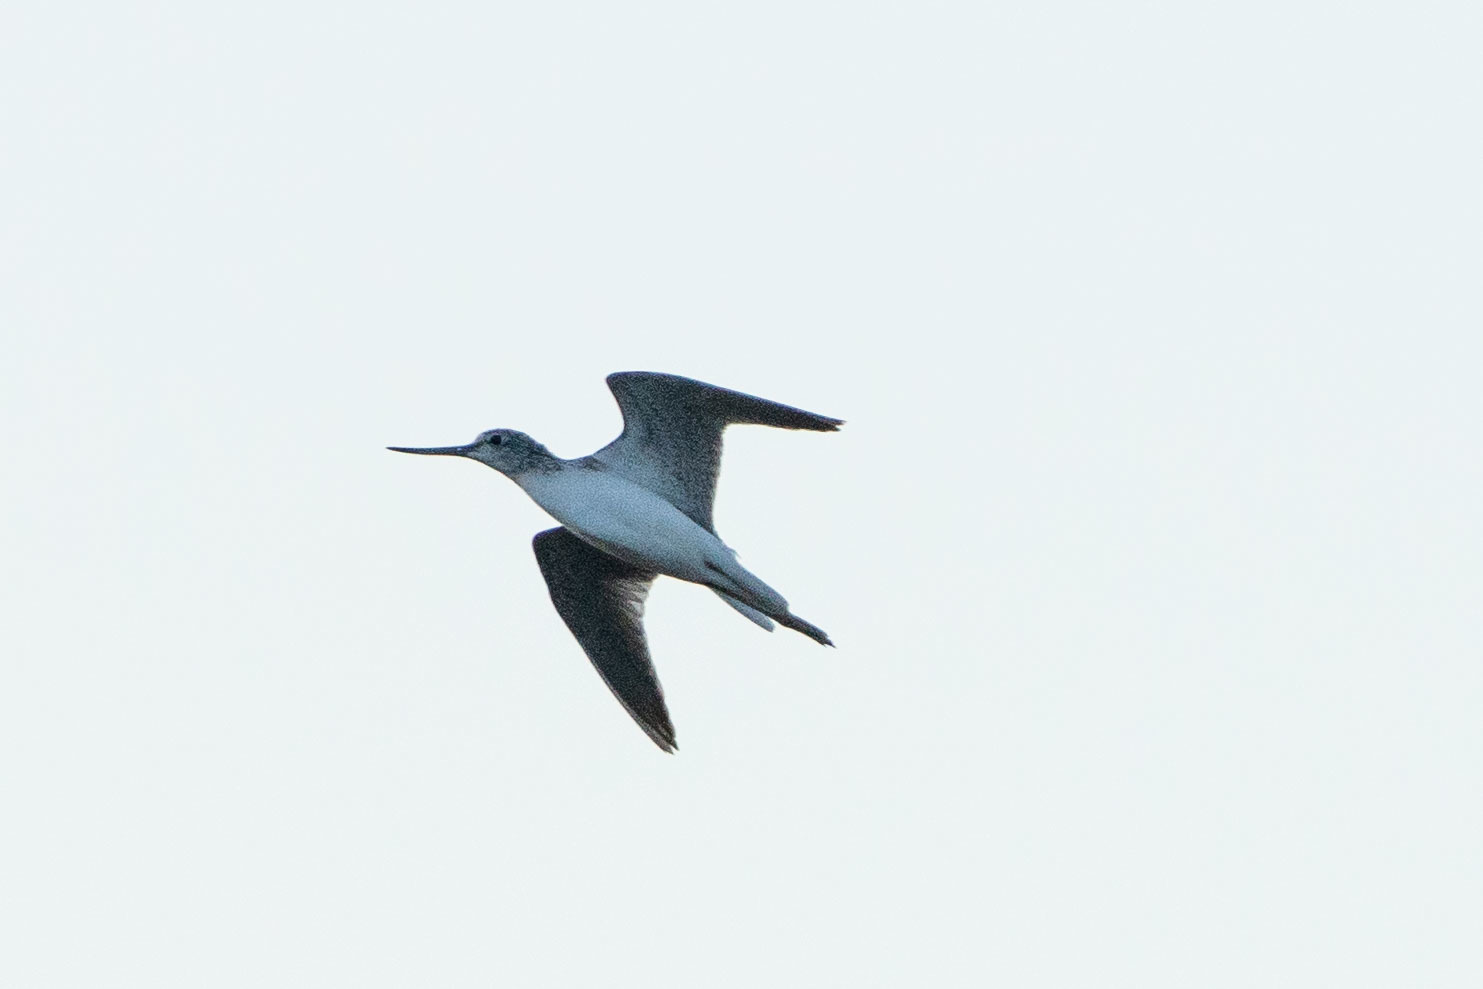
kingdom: Animalia
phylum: Chordata
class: Aves
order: Charadriiformes
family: Scolopacidae
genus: Tringa
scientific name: Tringa nebularia
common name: Common greenshank
